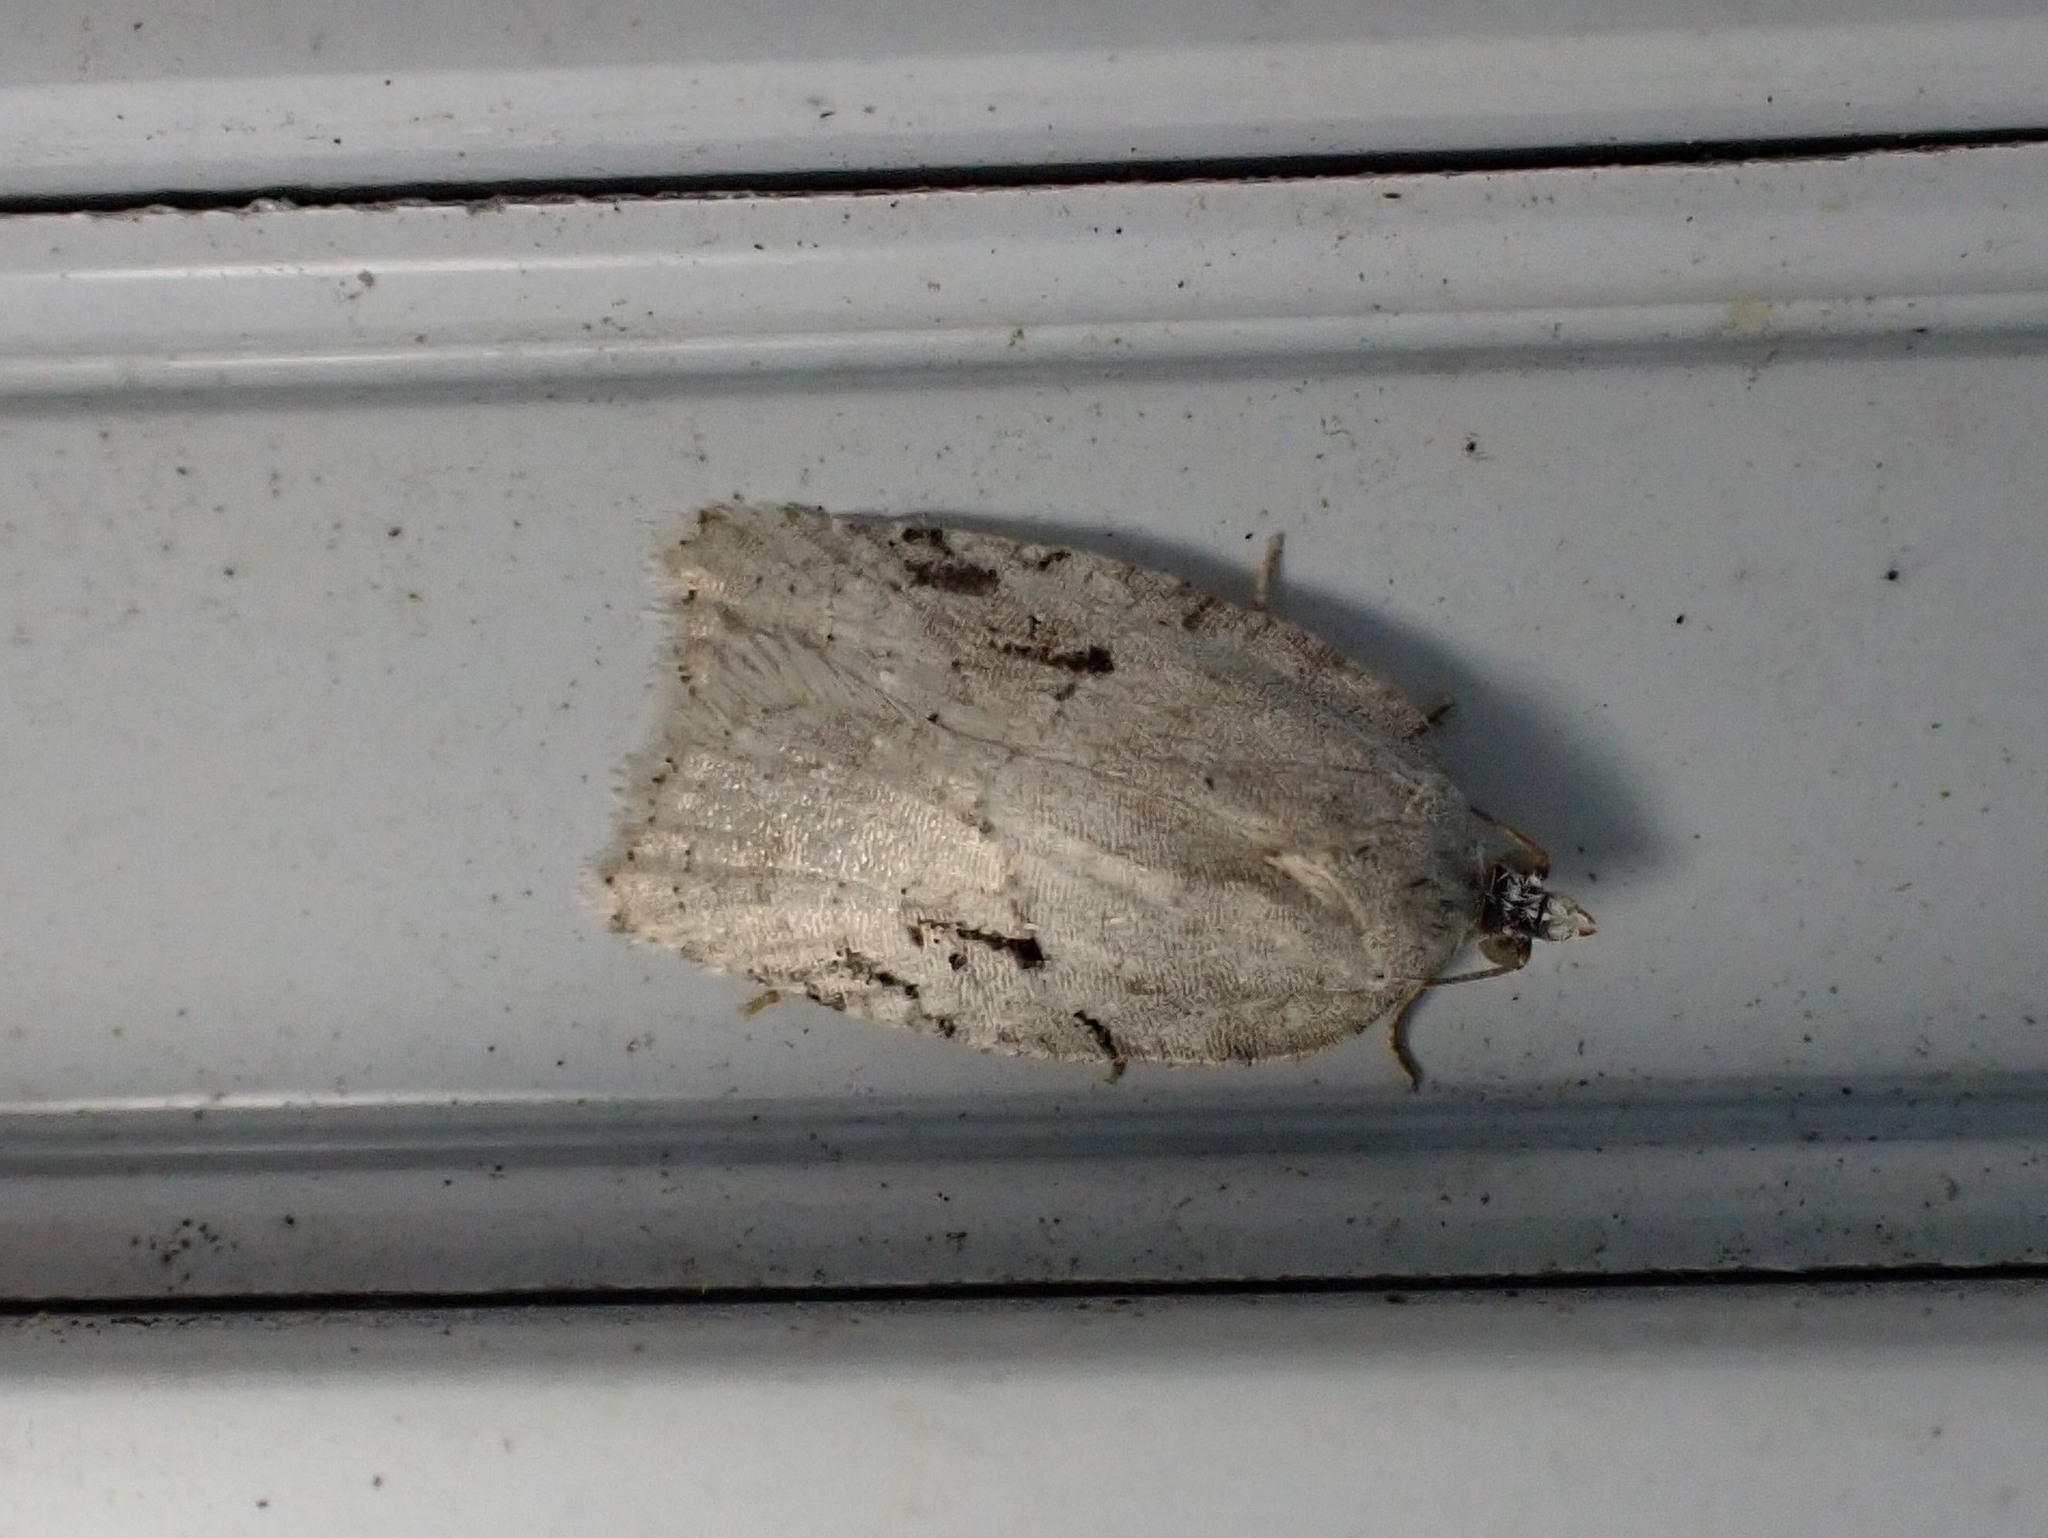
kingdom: Animalia
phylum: Arthropoda
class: Insecta
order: Lepidoptera
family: Tortricidae
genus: Acleris
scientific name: Acleris placidana
